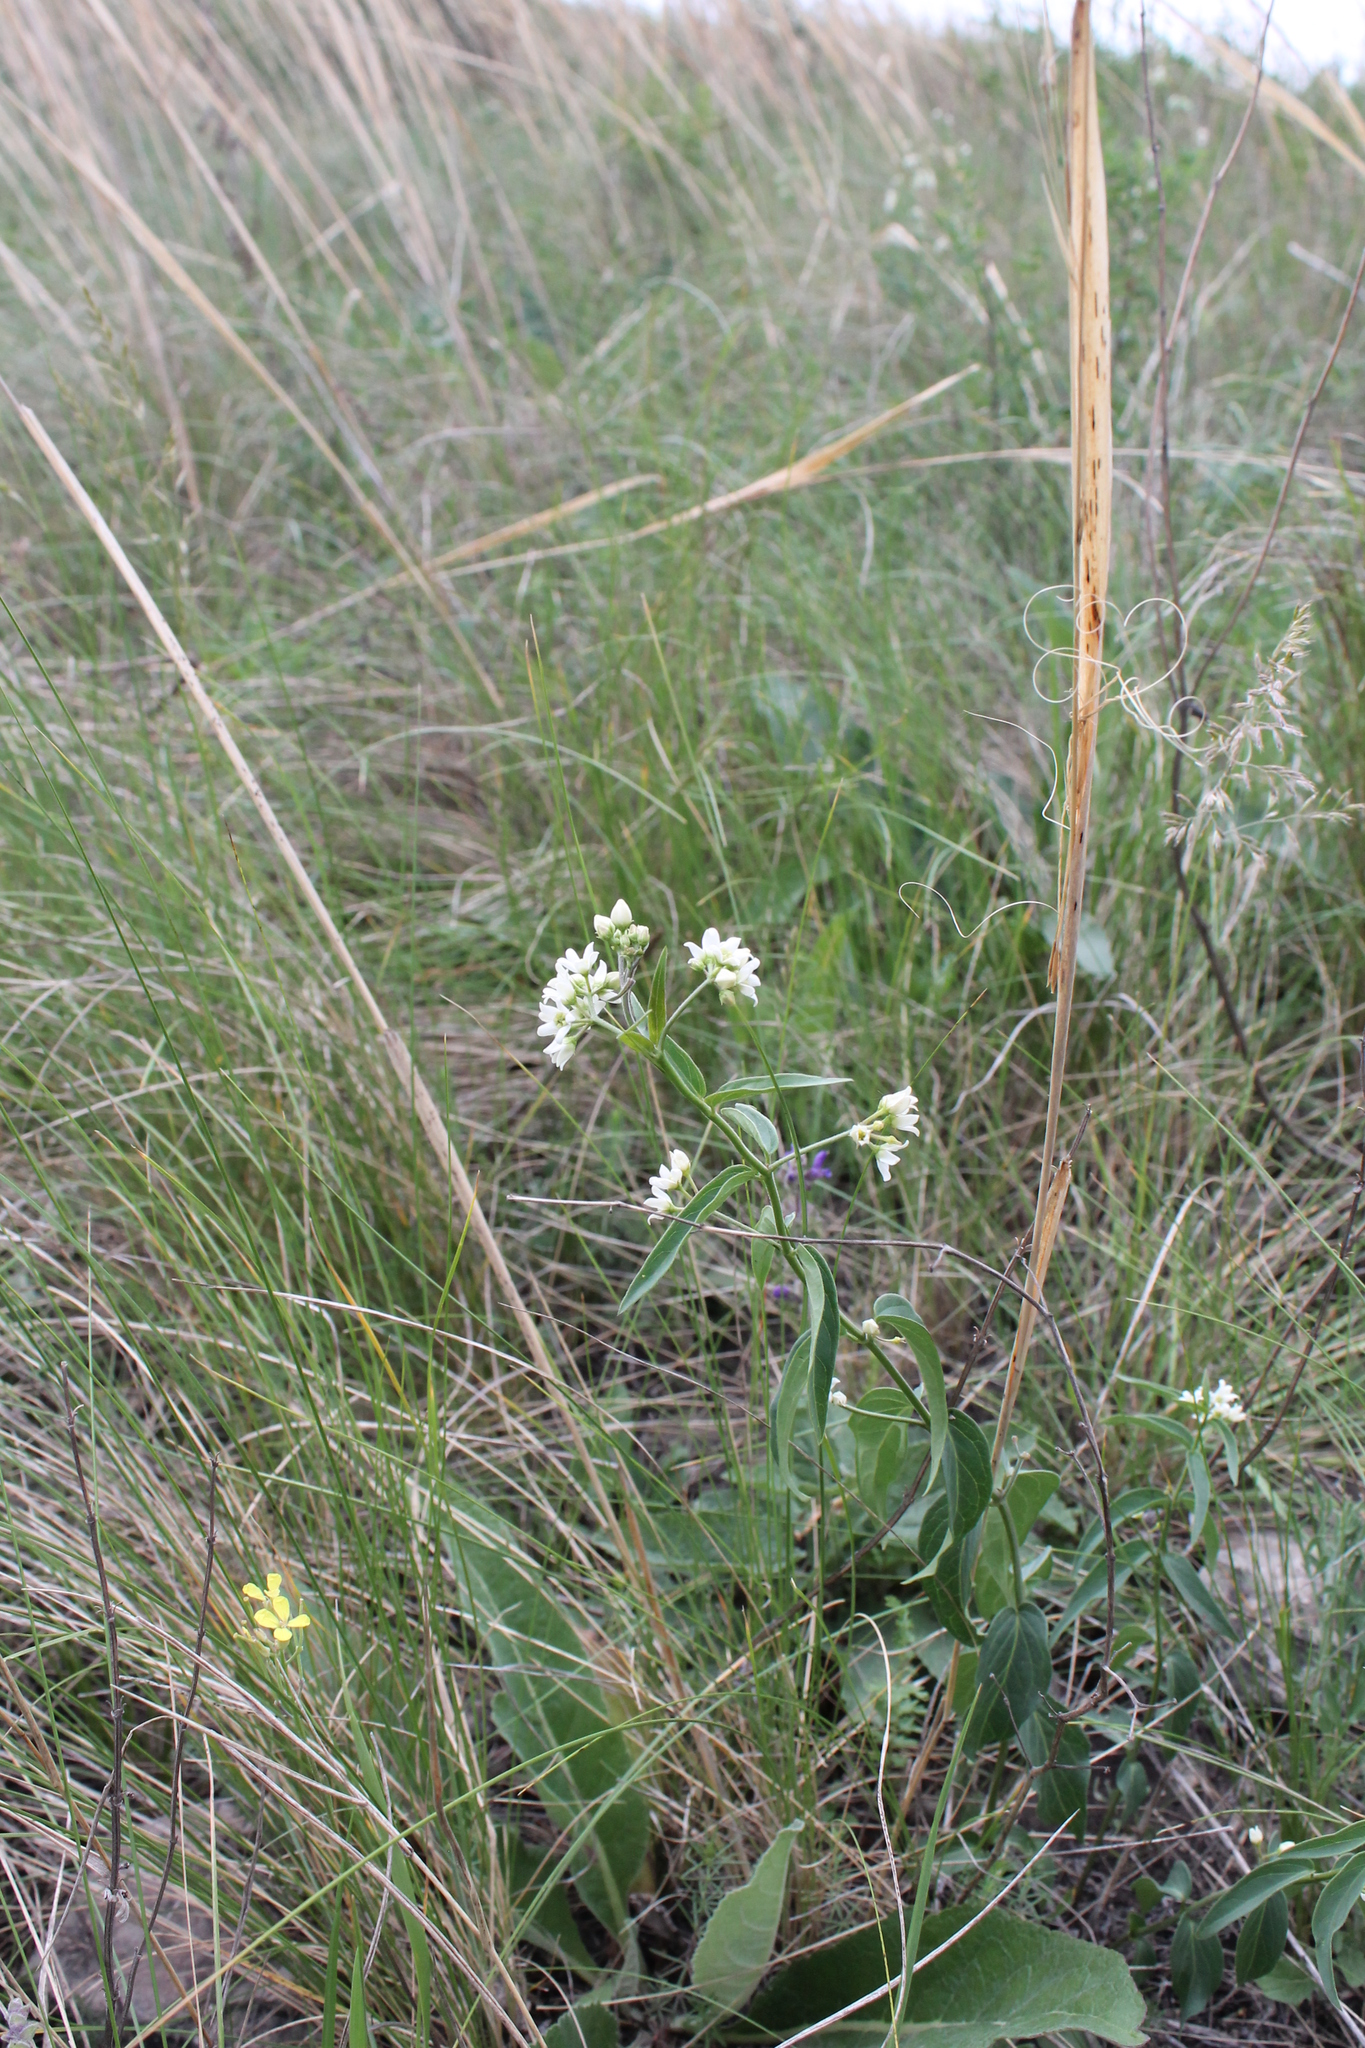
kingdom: Plantae
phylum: Tracheophyta
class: Magnoliopsida
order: Gentianales
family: Apocynaceae
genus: Vincetoxicum
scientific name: Vincetoxicum hirundinaria
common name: White swallowwort
